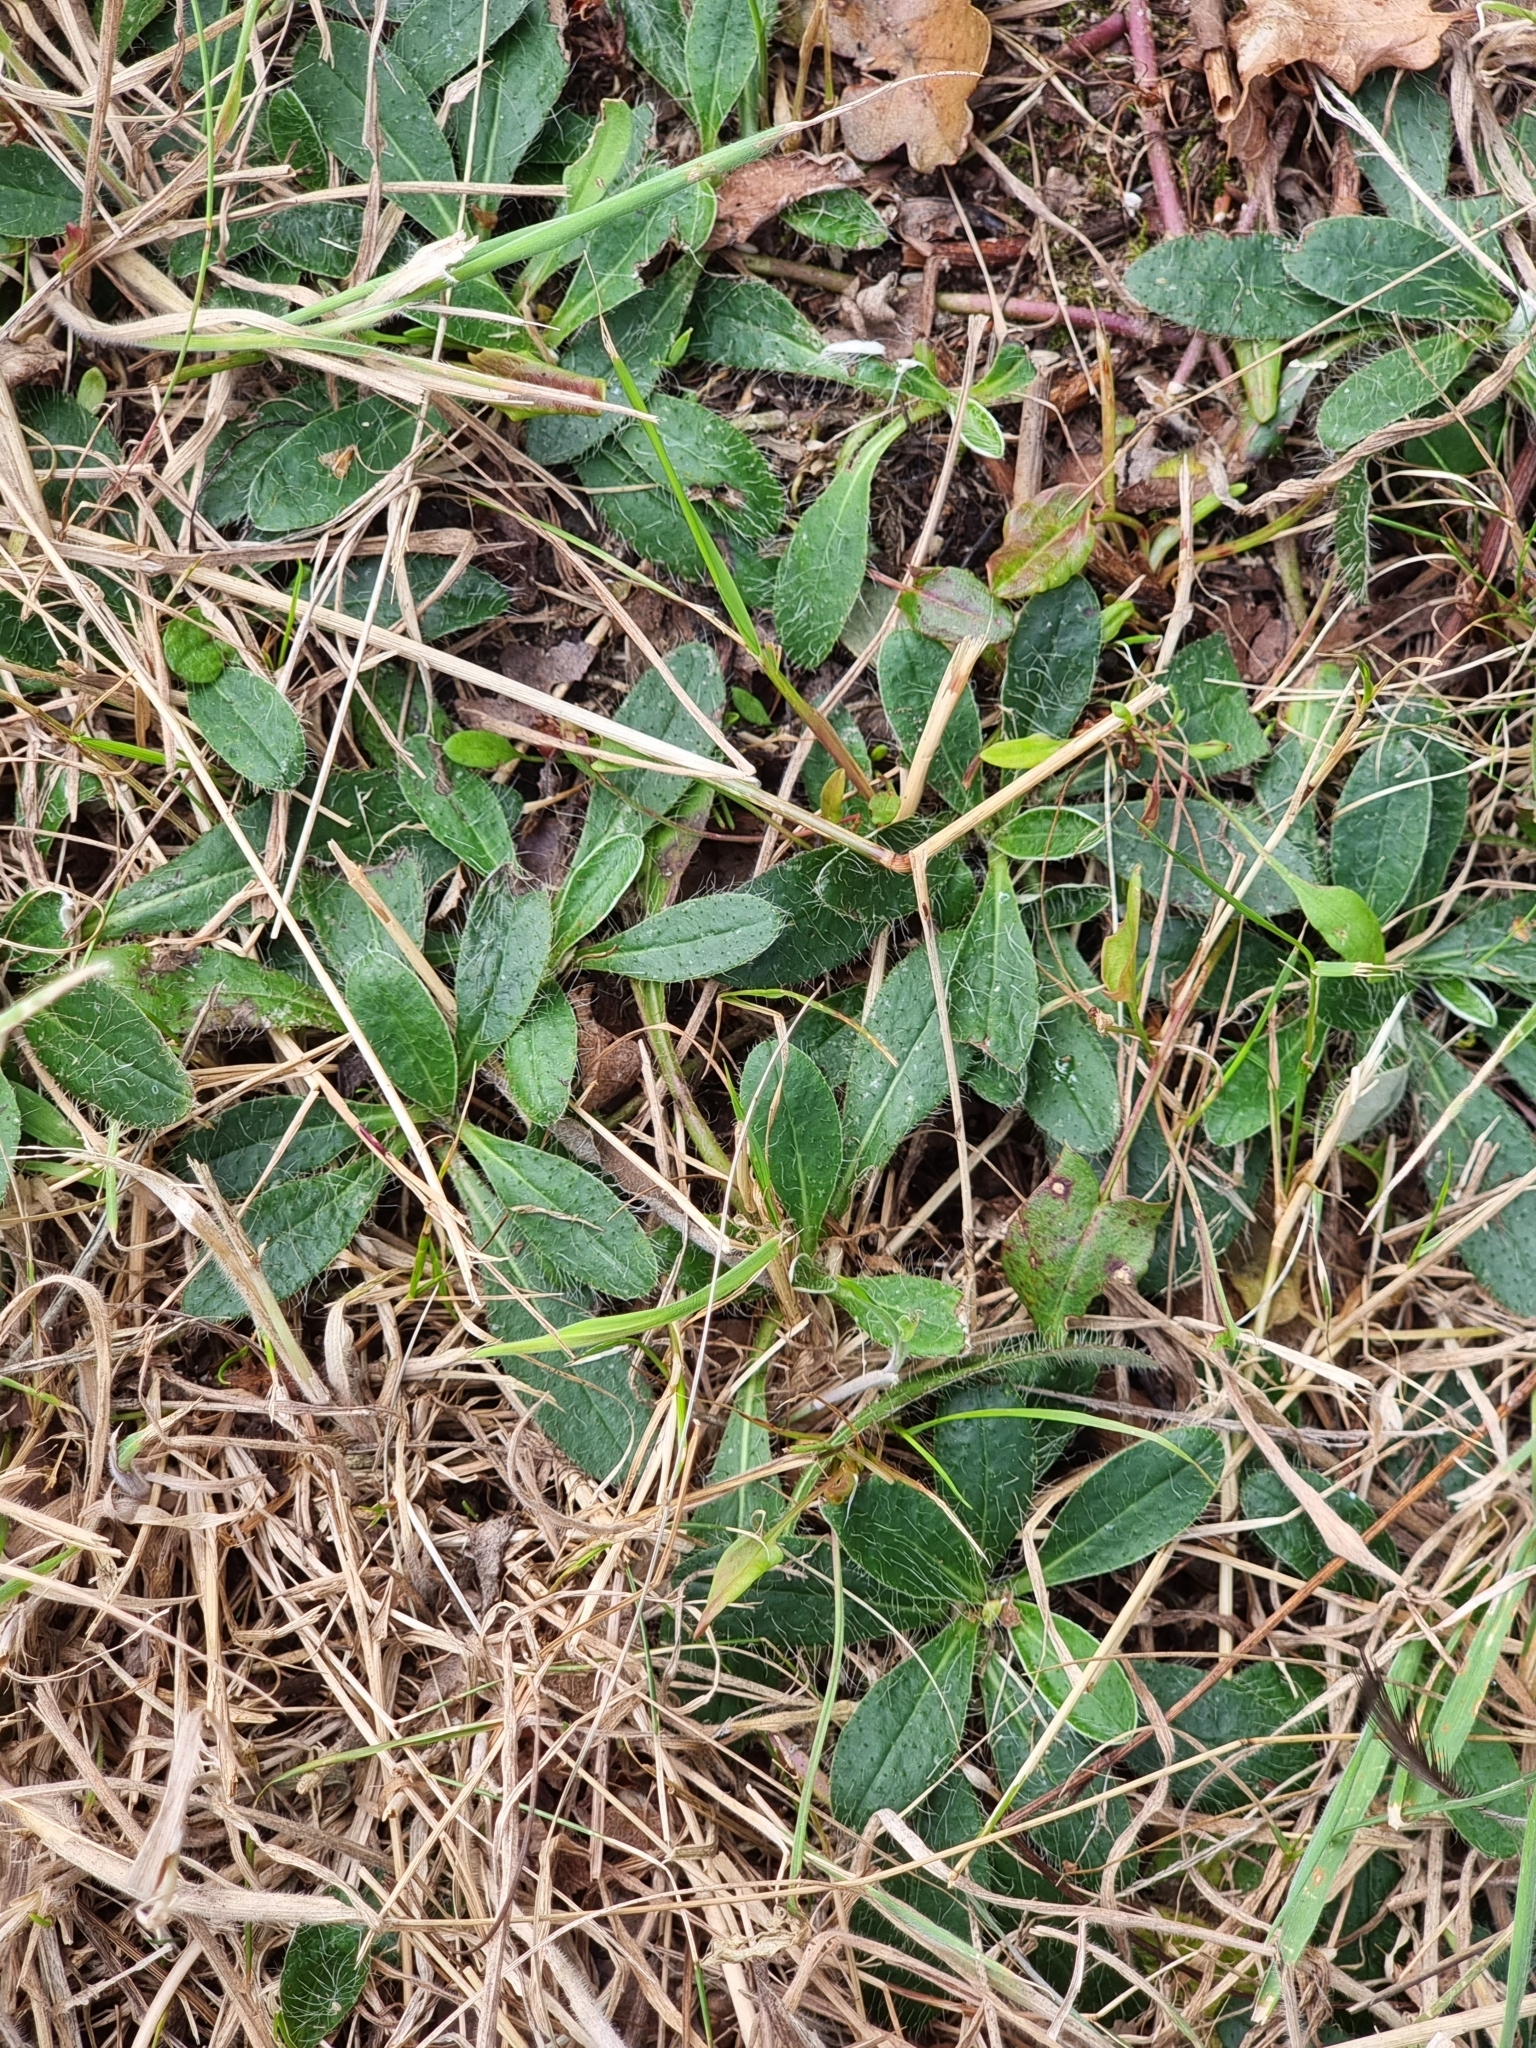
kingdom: Plantae
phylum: Tracheophyta
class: Magnoliopsida
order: Asterales
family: Asteraceae
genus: Pilosella
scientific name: Pilosella officinarum
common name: Mouse-ear hawkweed
